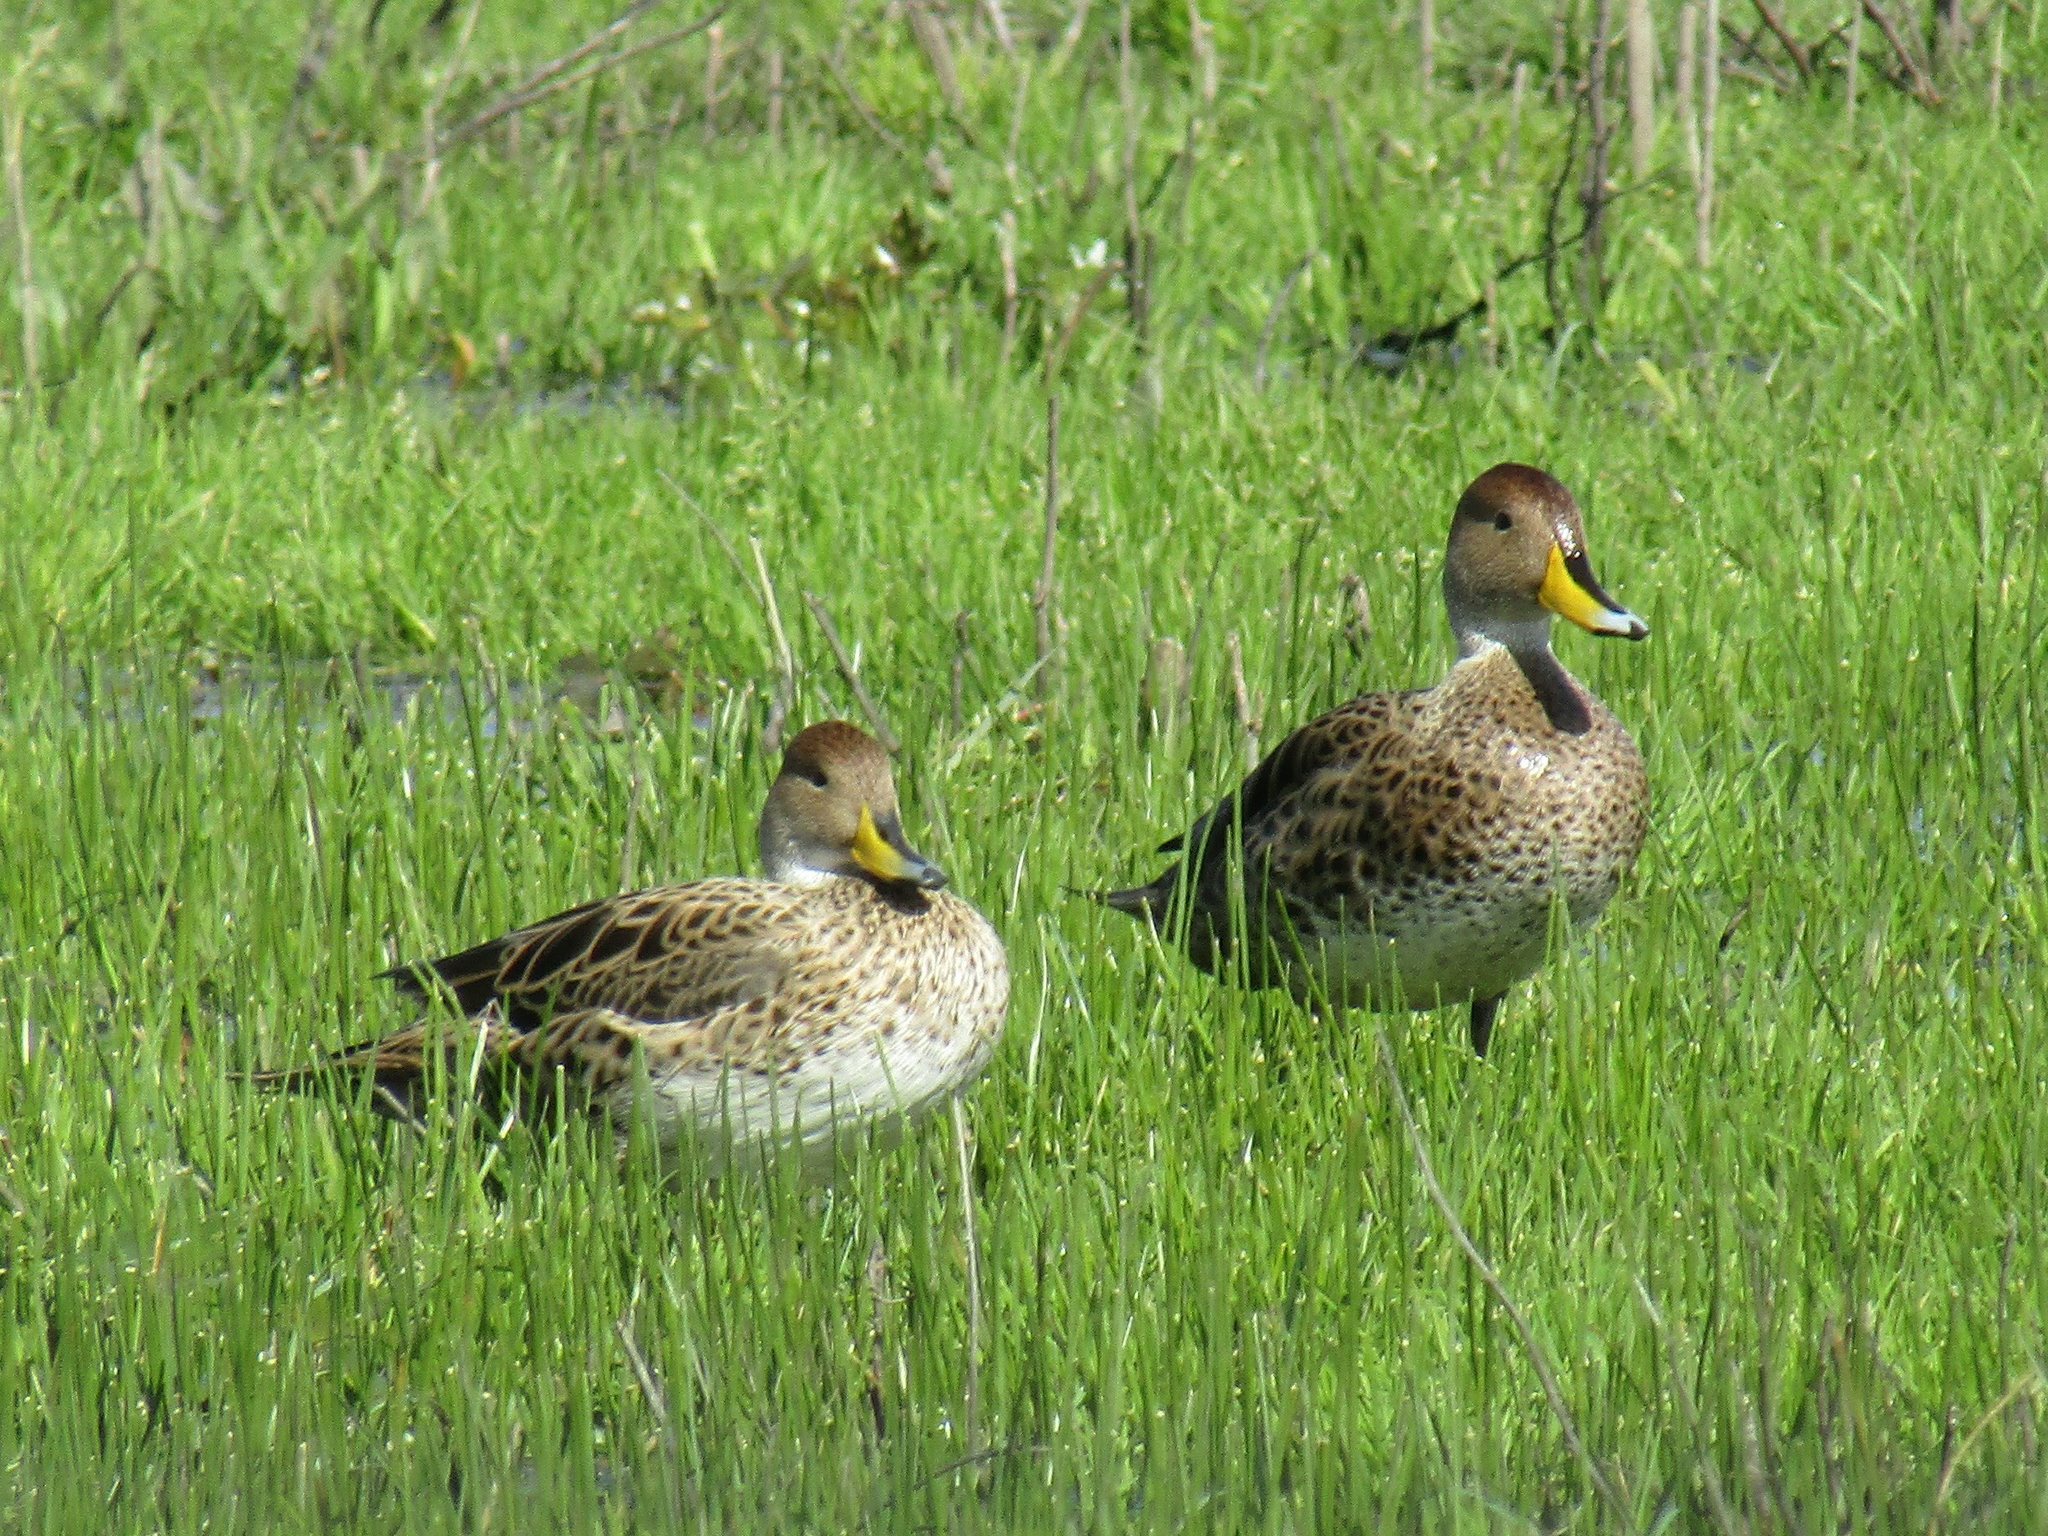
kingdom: Animalia
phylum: Chordata
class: Aves
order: Anseriformes
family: Anatidae
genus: Anas
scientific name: Anas georgica
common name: Yellow-billed pintail
